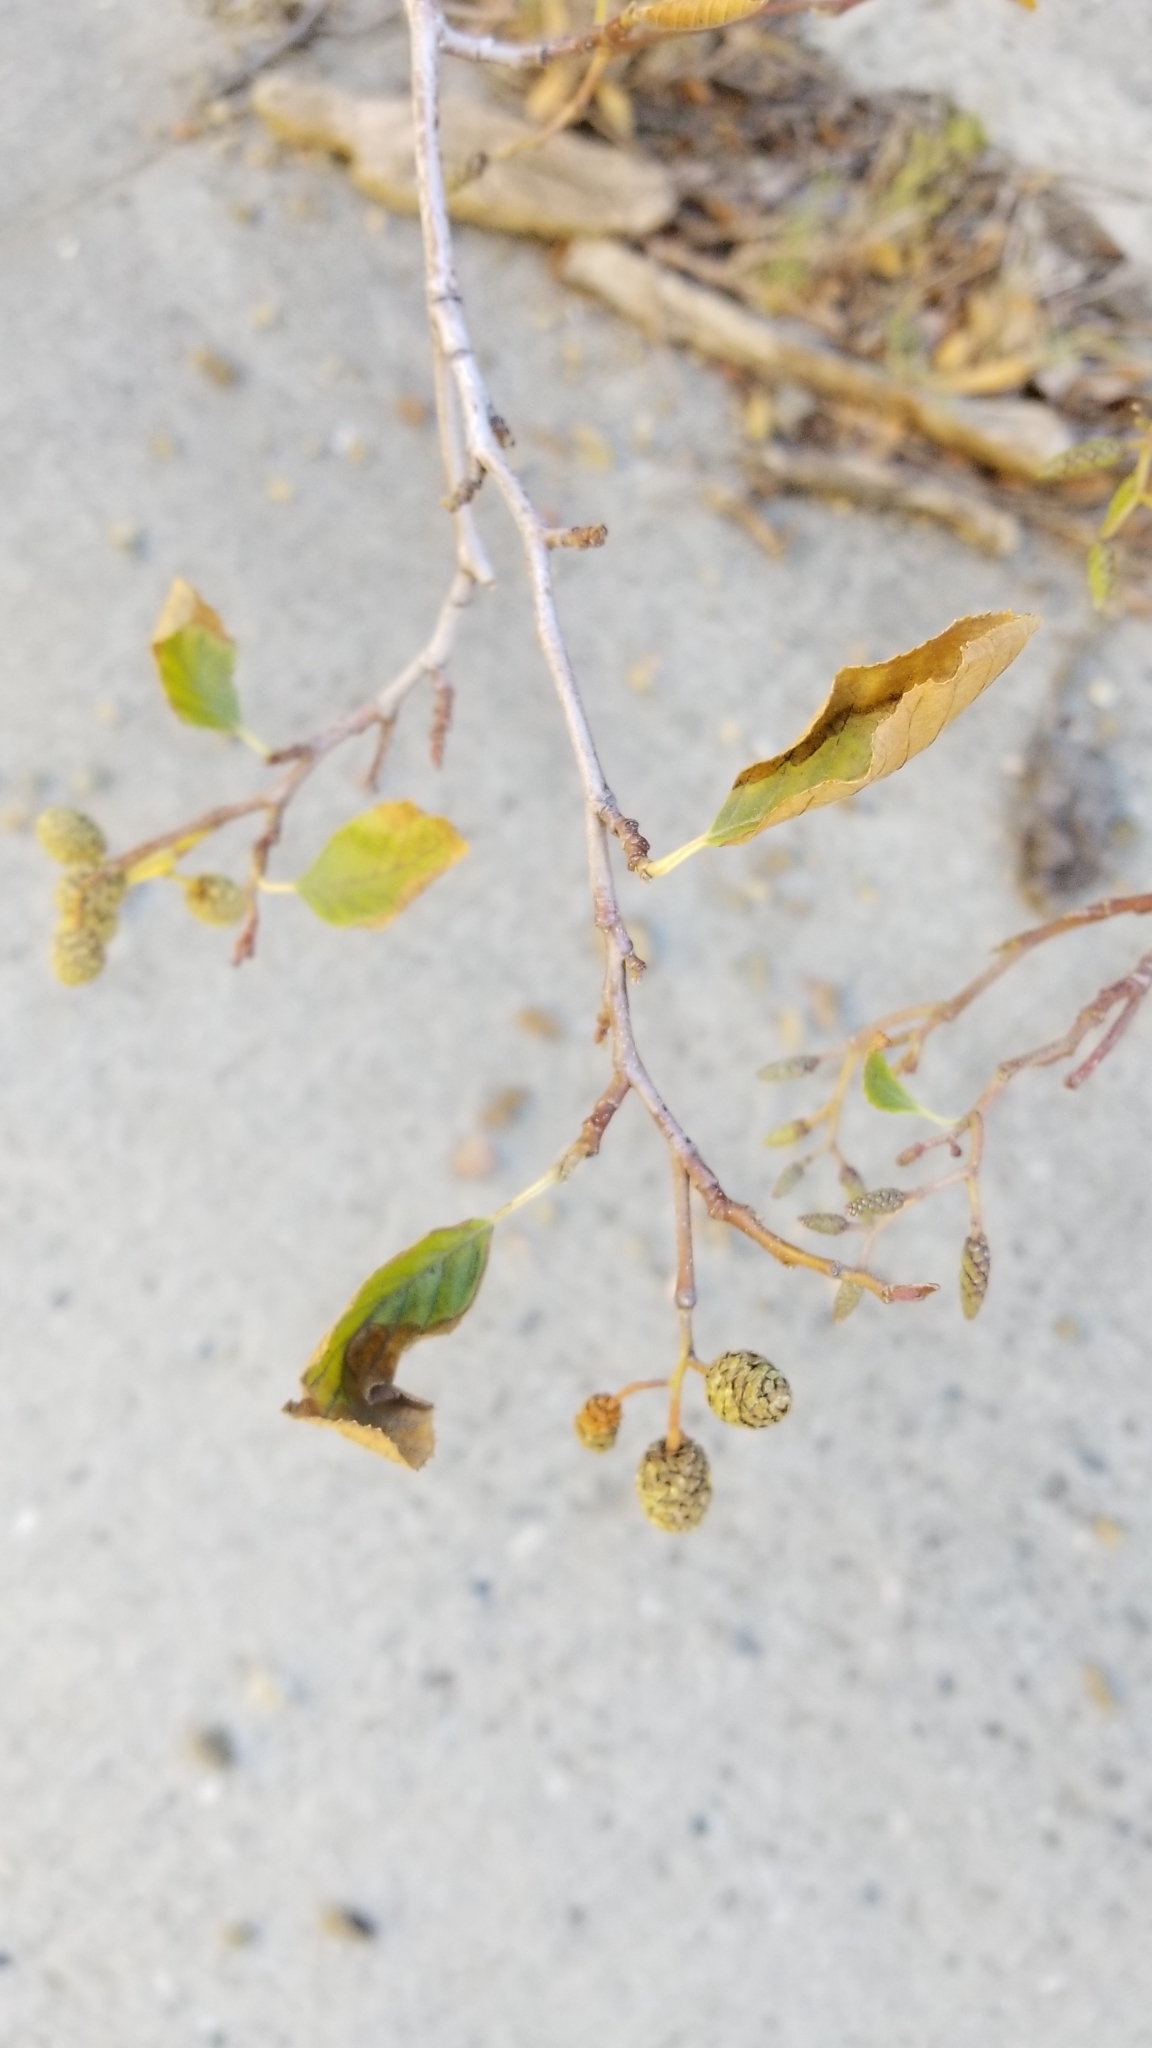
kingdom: Plantae
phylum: Tracheophyta
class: Magnoliopsida
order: Fagales
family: Betulaceae
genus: Alnus
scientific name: Alnus rhombifolia
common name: California alder
